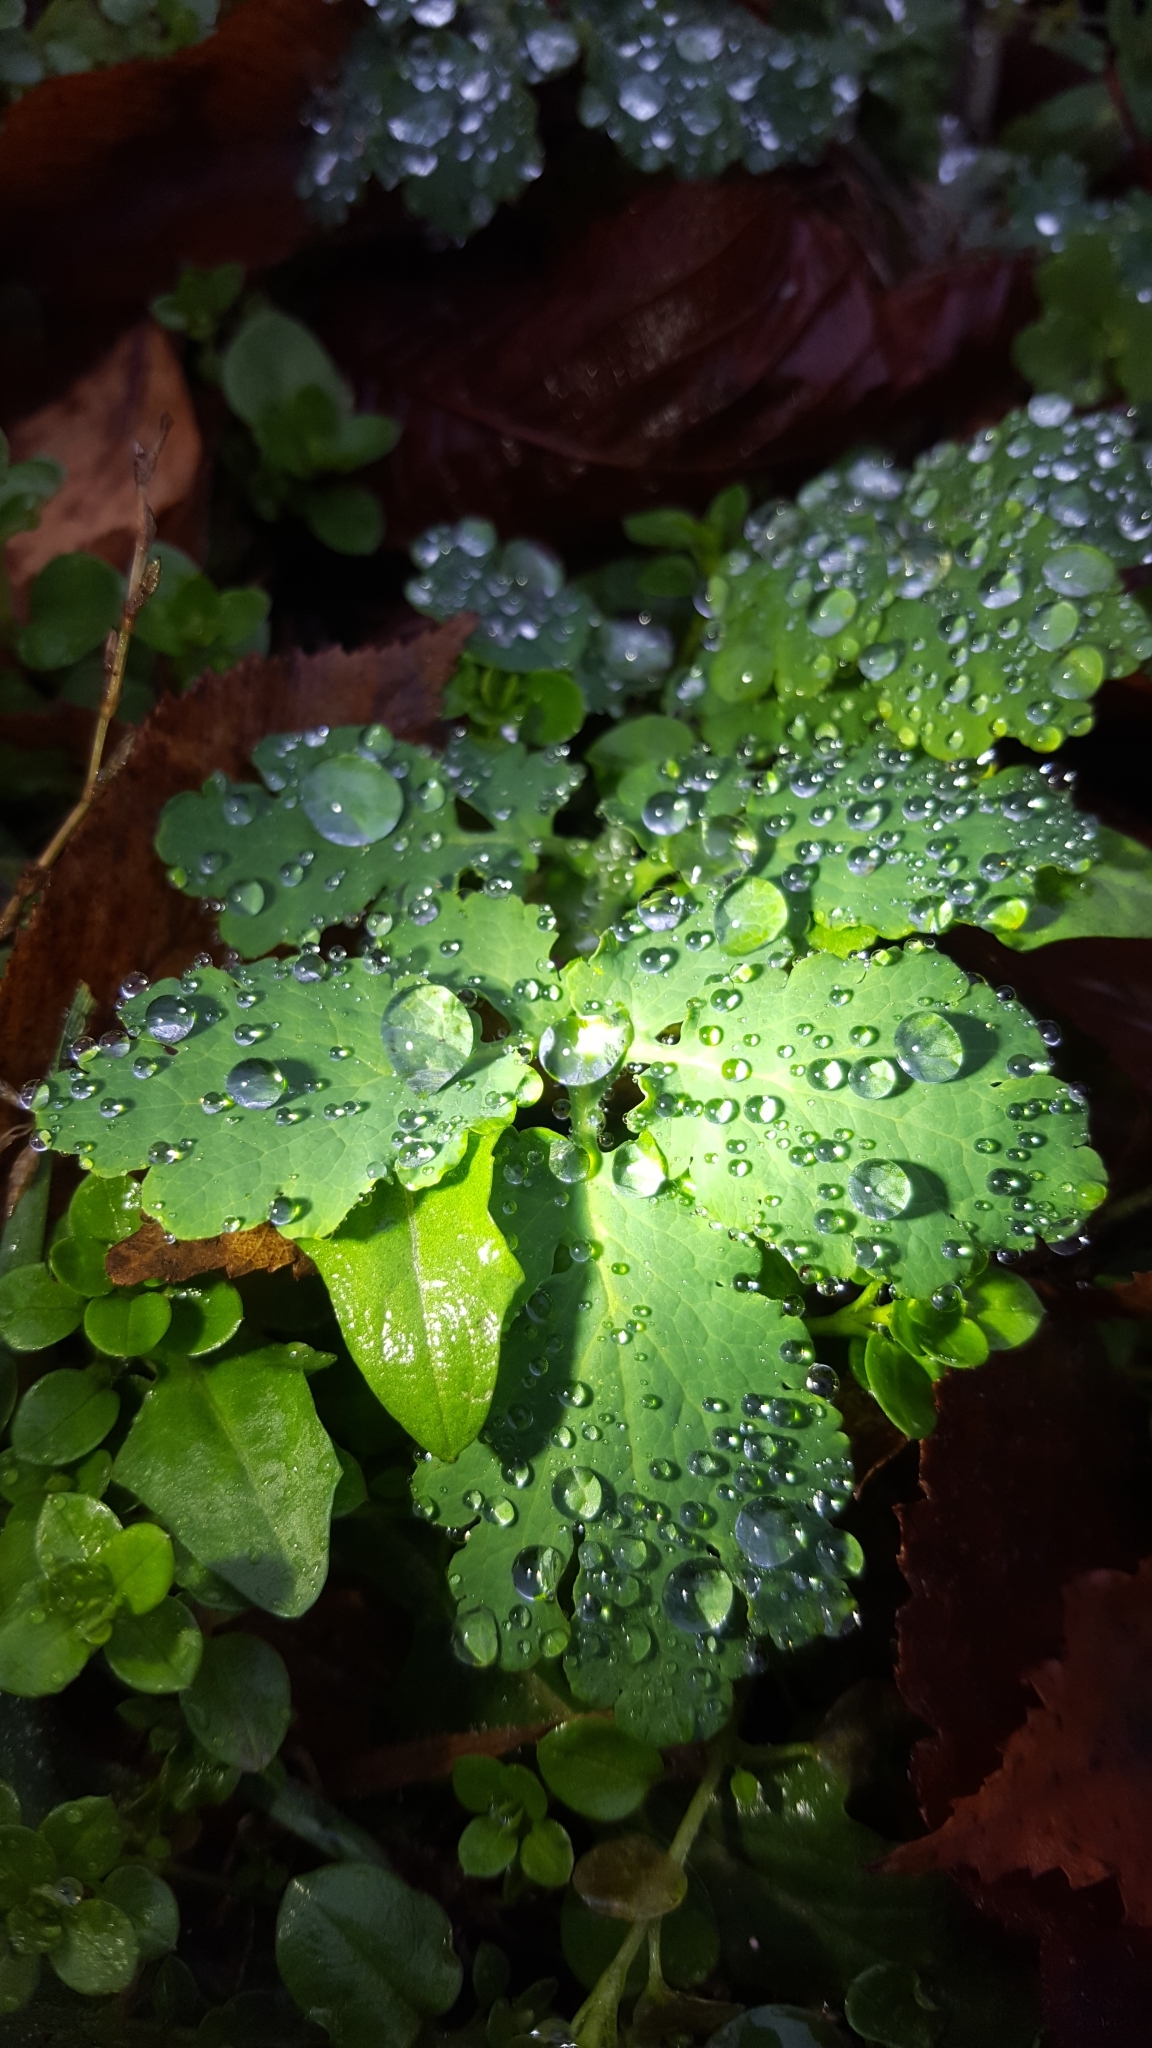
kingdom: Plantae
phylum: Tracheophyta
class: Magnoliopsida
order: Ranunculales
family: Papaveraceae
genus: Chelidonium
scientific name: Chelidonium majus
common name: Greater celandine
